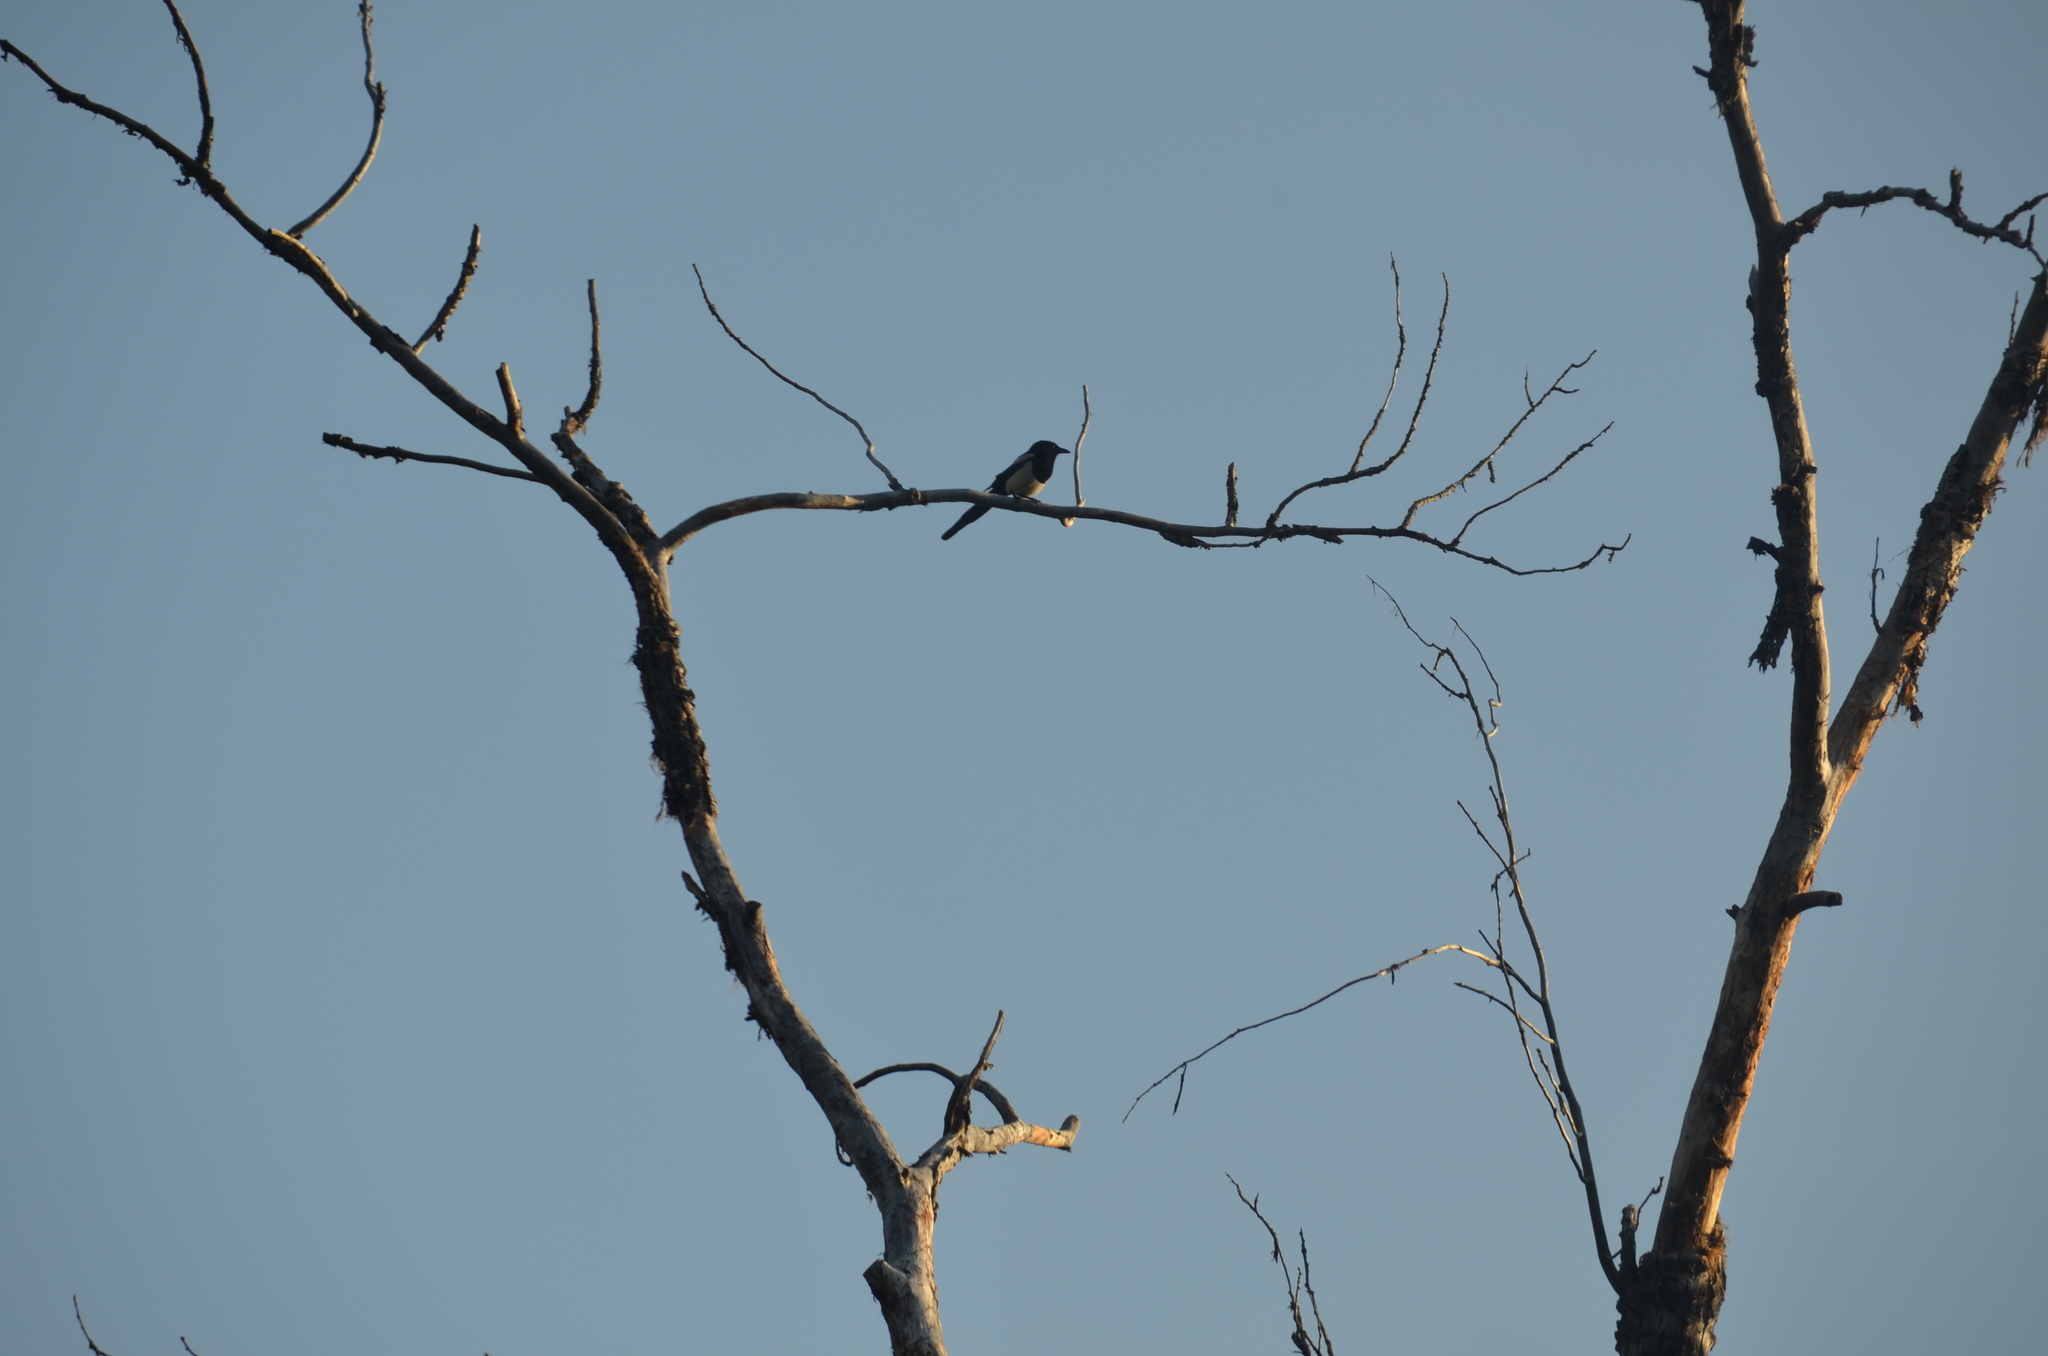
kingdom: Animalia
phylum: Chordata
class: Aves
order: Passeriformes
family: Corvidae
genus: Pica
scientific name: Pica hudsonia
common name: Black-billed magpie
